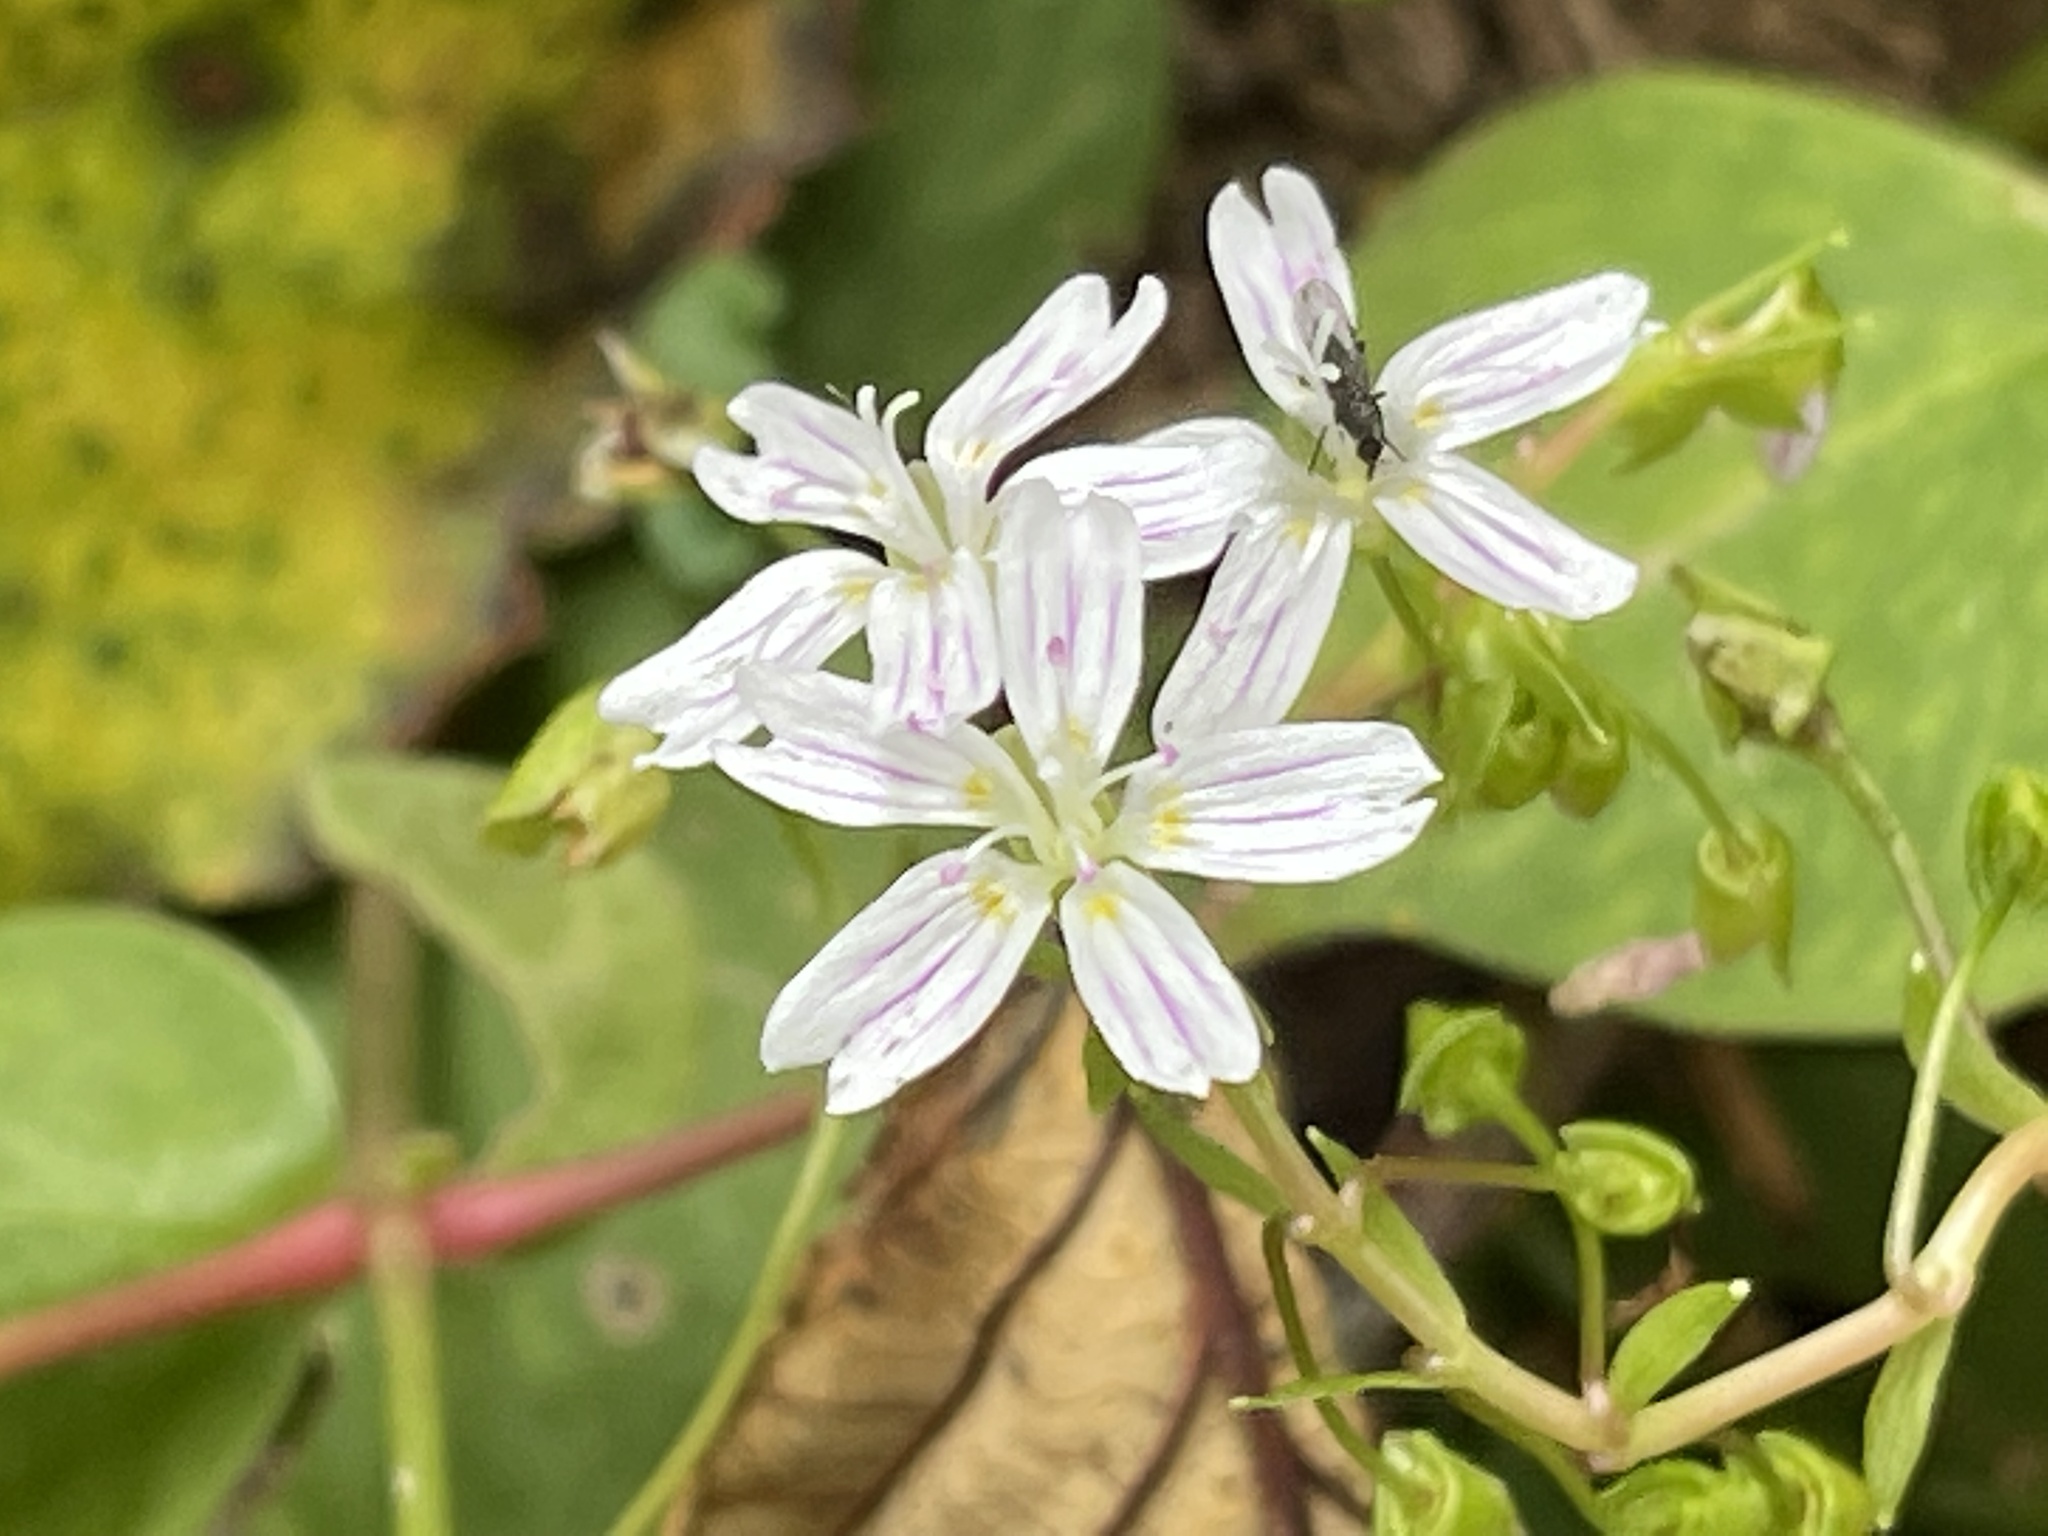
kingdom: Plantae
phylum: Tracheophyta
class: Magnoliopsida
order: Caryophyllales
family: Montiaceae
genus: Claytonia
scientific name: Claytonia sibirica
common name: Pink purslane
